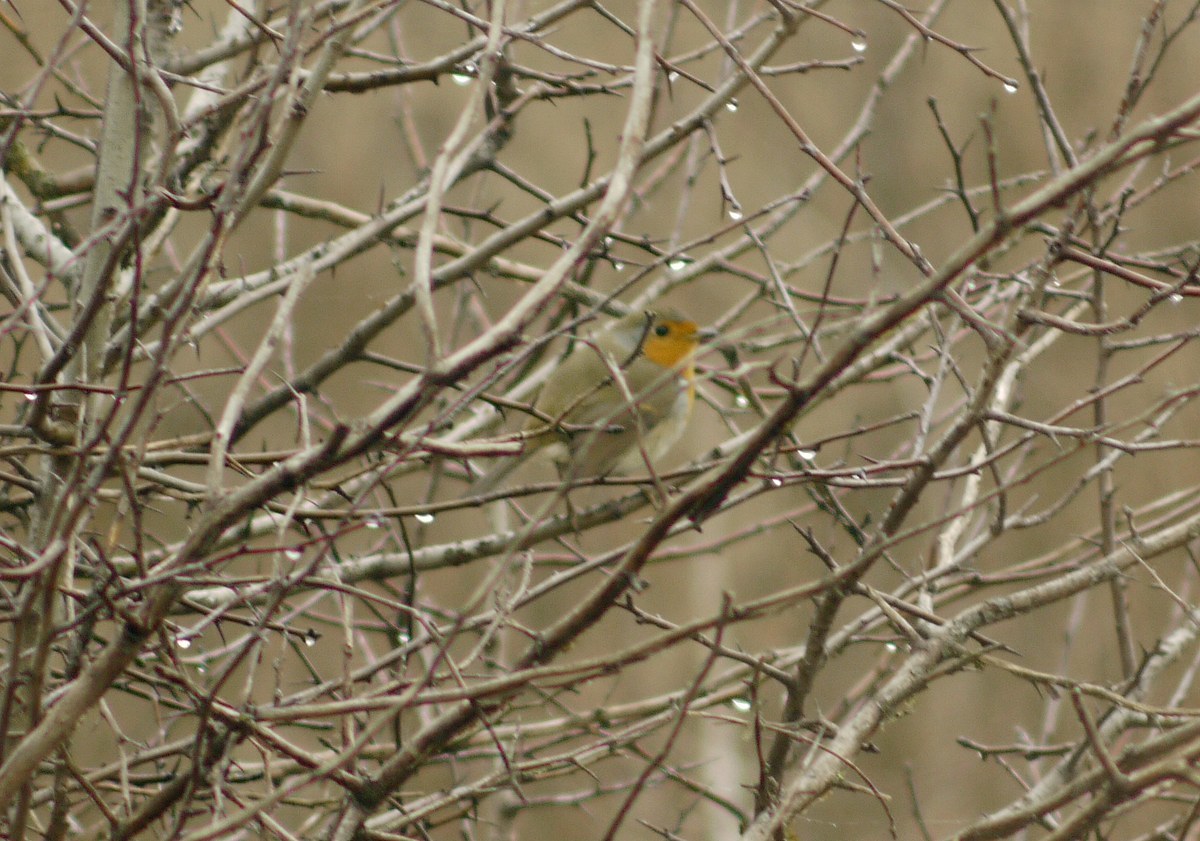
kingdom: Animalia
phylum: Chordata
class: Aves
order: Passeriformes
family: Muscicapidae
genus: Erithacus
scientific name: Erithacus rubecula
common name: European robin
